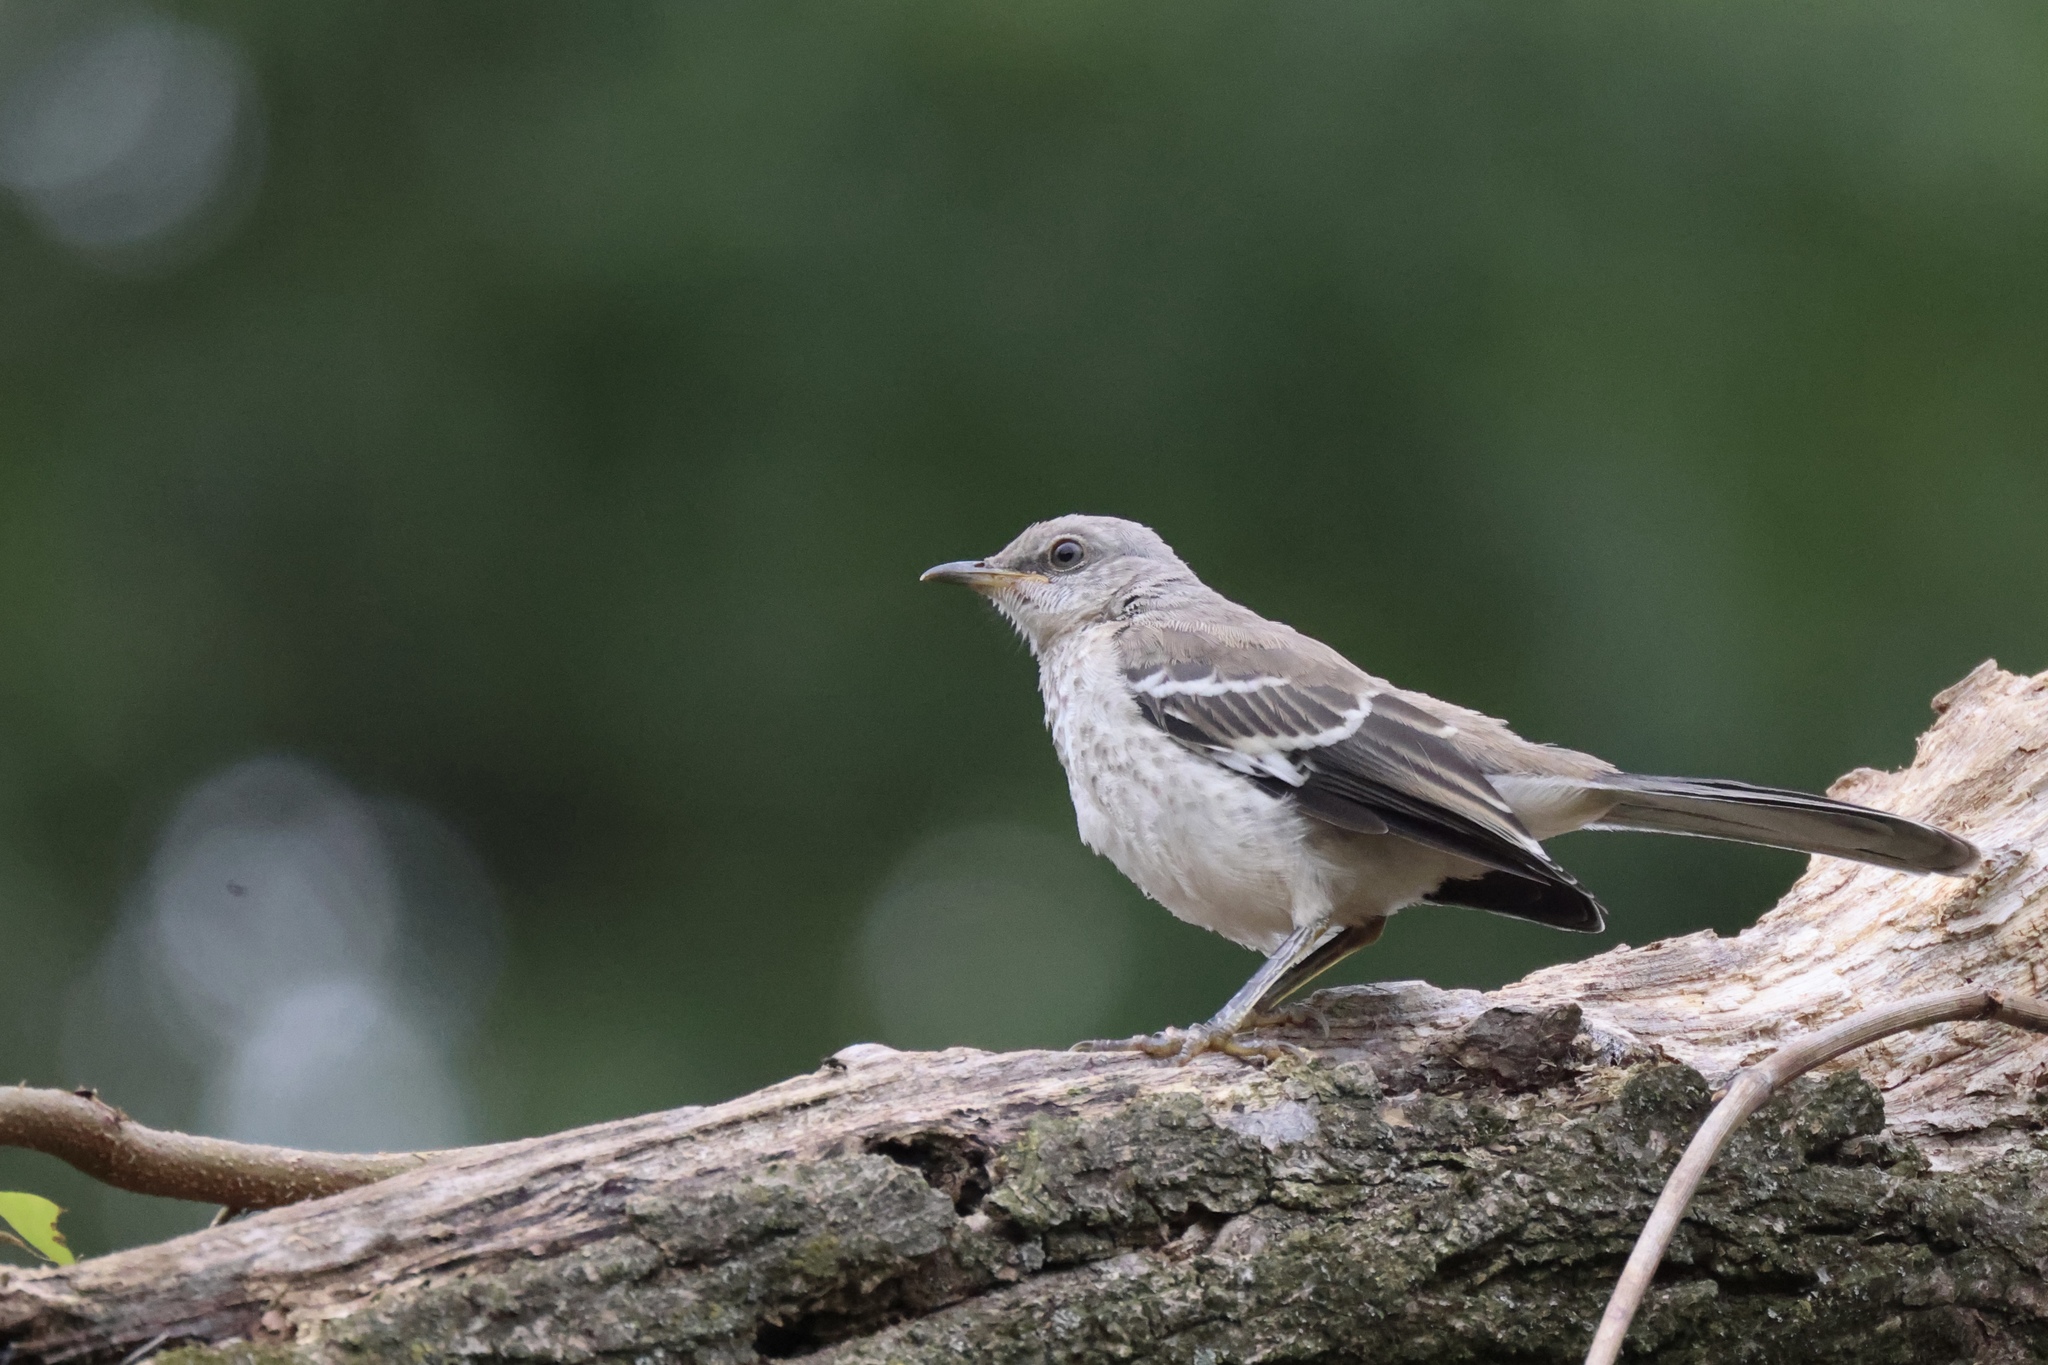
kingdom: Animalia
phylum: Chordata
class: Aves
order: Passeriformes
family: Mimidae
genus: Mimus
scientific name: Mimus polyglottos
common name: Northern mockingbird
